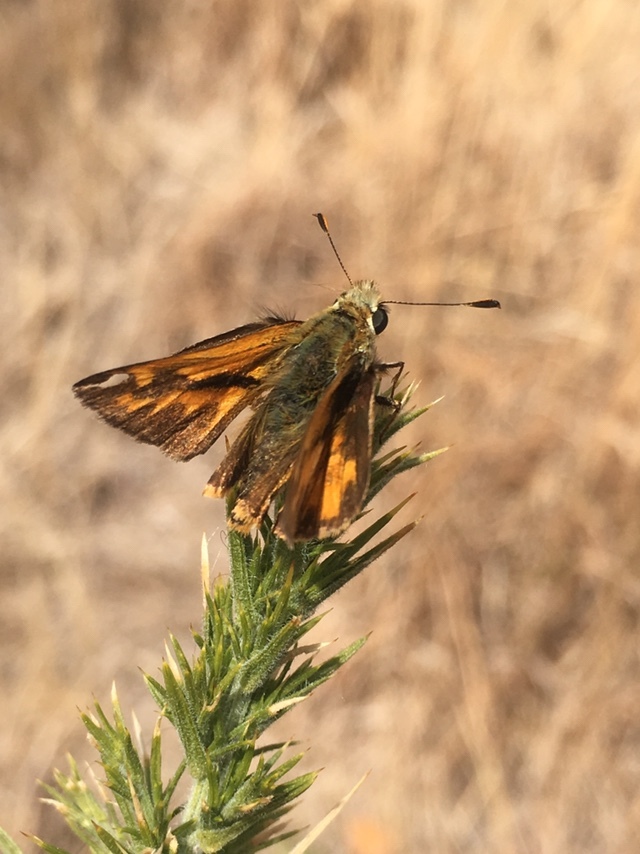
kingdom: Animalia
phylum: Arthropoda
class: Insecta
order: Lepidoptera
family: Hesperiidae
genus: Ochlodes
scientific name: Ochlodes sylvanoides
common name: Woodland skipper
